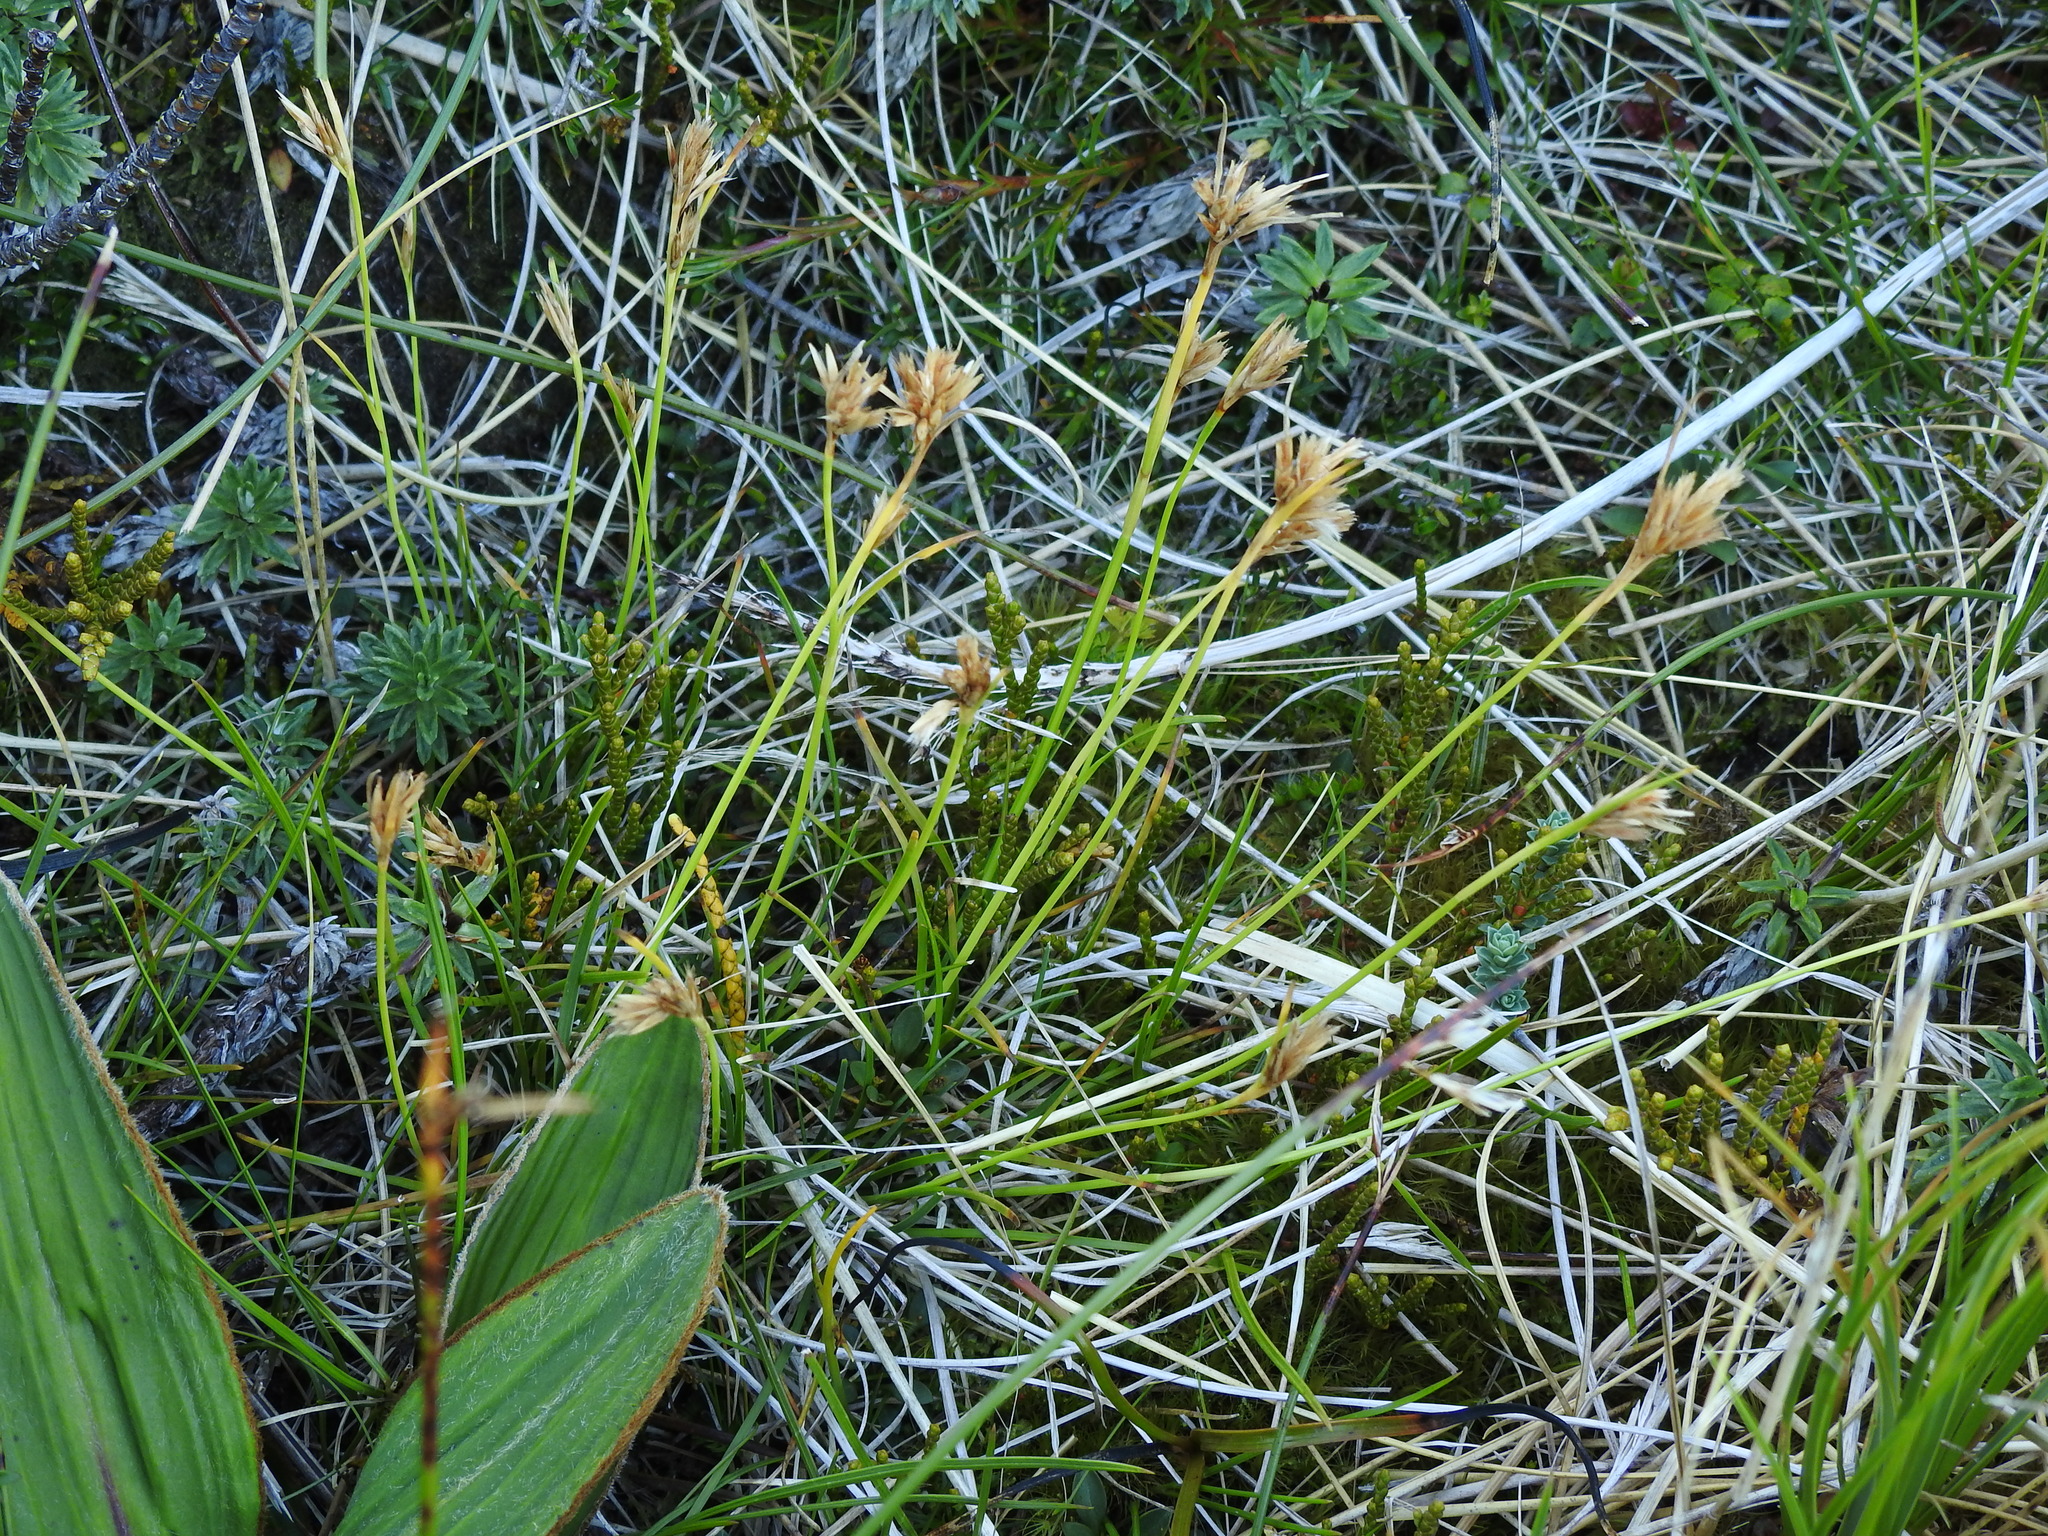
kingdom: Plantae
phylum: Tracheophyta
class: Liliopsida
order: Poales
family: Cyperaceae
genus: Carpha
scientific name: Carpha alpina
